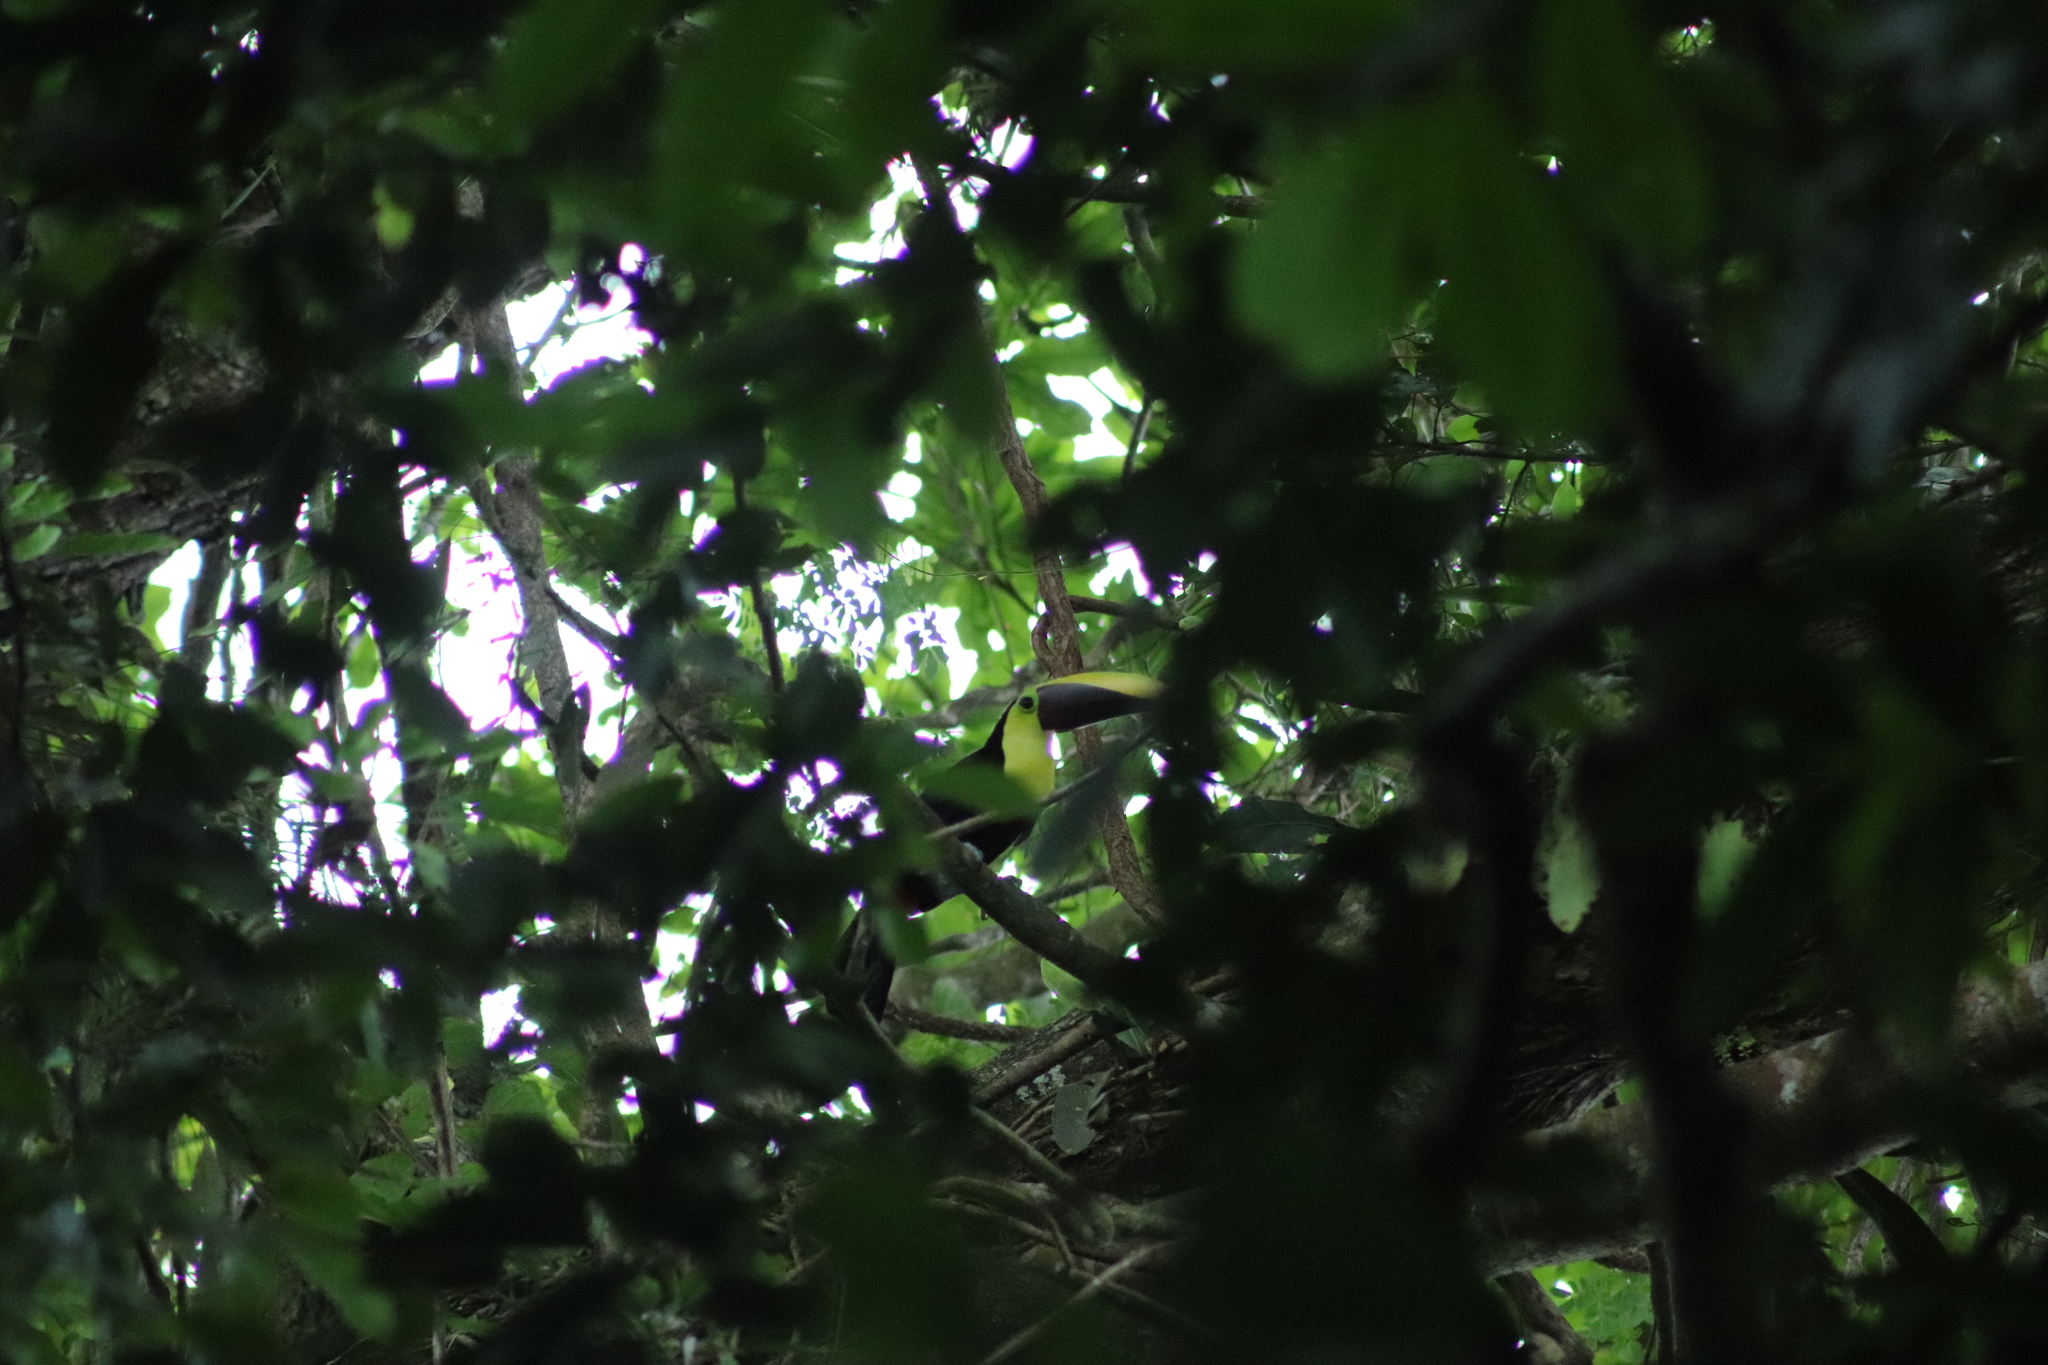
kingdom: Animalia
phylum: Chordata
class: Aves
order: Piciformes
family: Ramphastidae
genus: Ramphastos
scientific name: Ramphastos ambiguus
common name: Yellow-throated toucan
